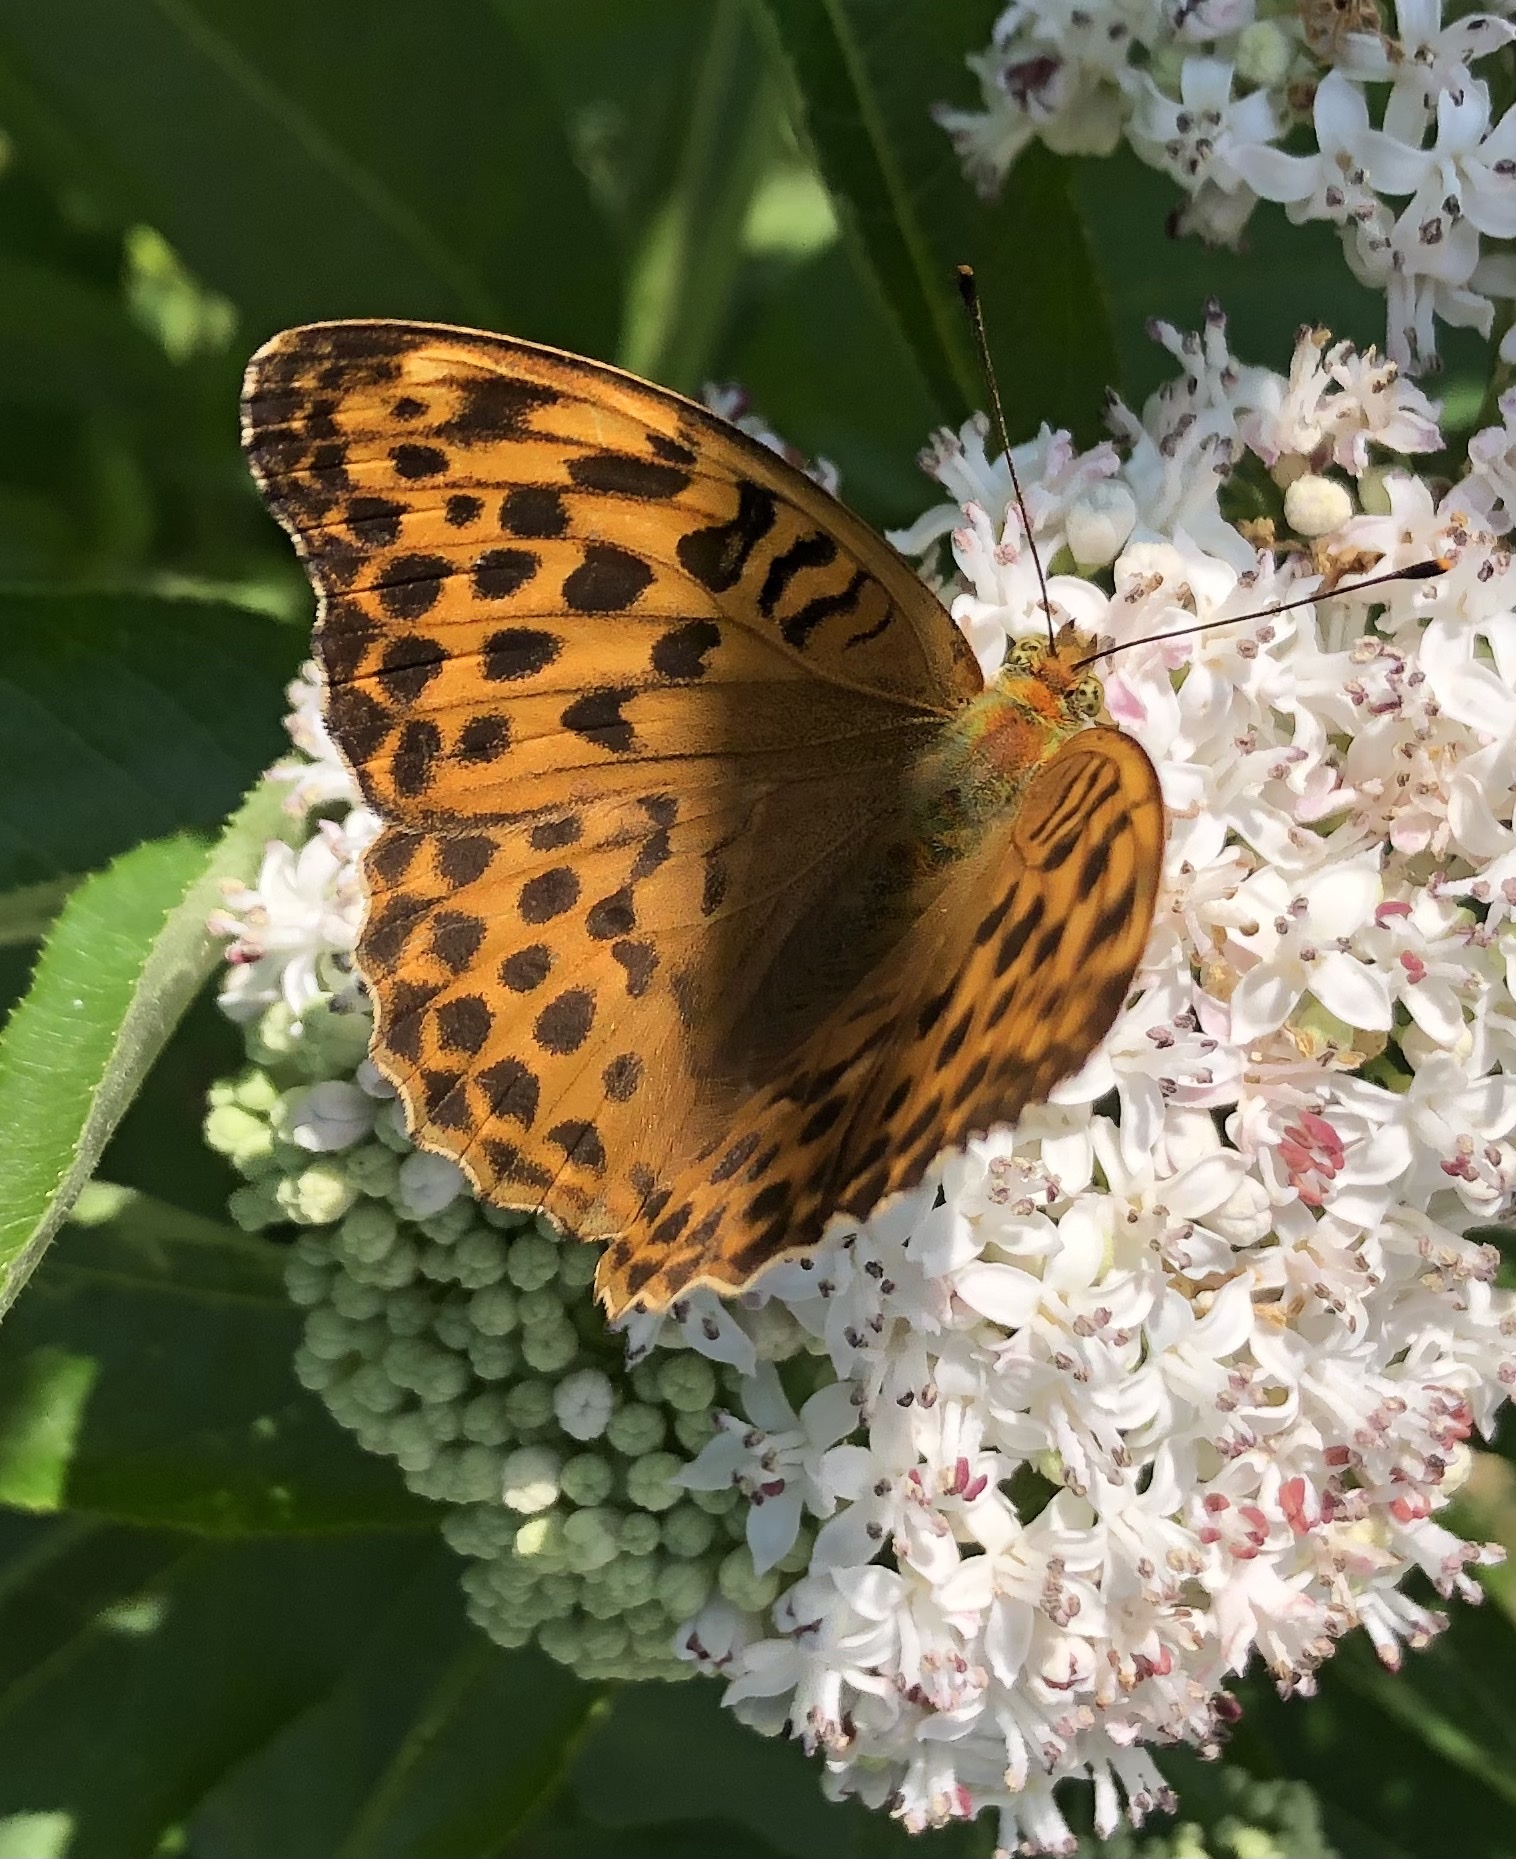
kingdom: Animalia
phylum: Arthropoda
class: Insecta
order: Lepidoptera
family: Nymphalidae
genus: Argynnis
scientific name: Argynnis paphia
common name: Silver-washed fritillary
